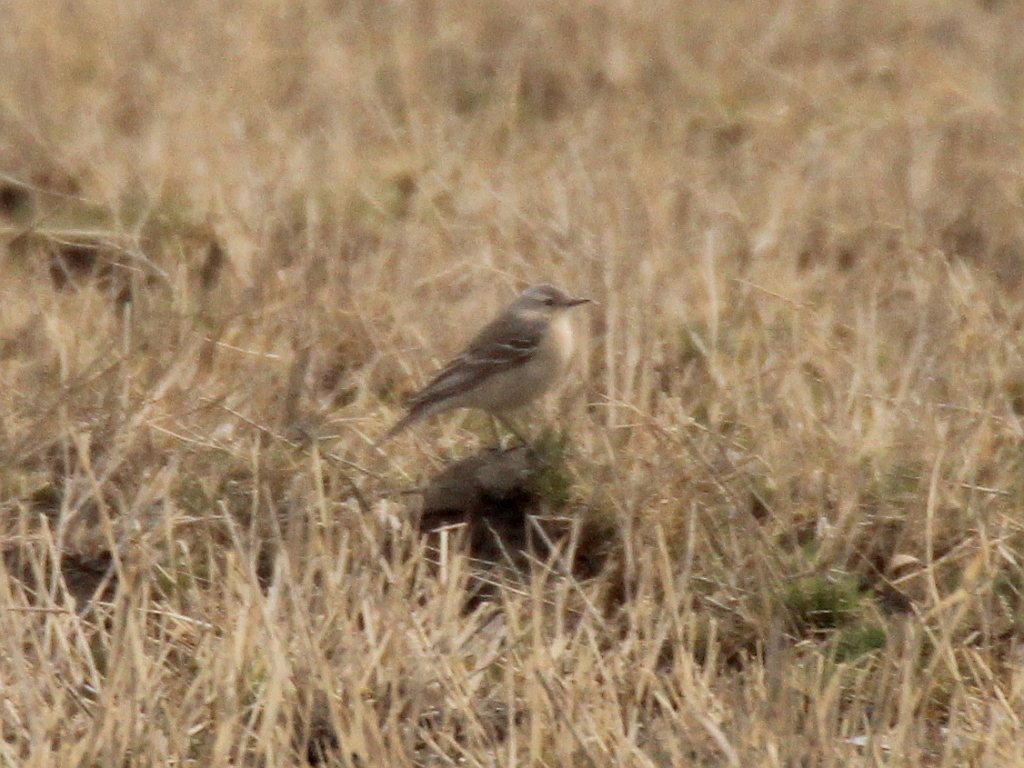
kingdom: Animalia
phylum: Chordata
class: Aves
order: Passeriformes
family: Motacillidae
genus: Anthus
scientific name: Anthus spinoletta
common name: Water pipit
